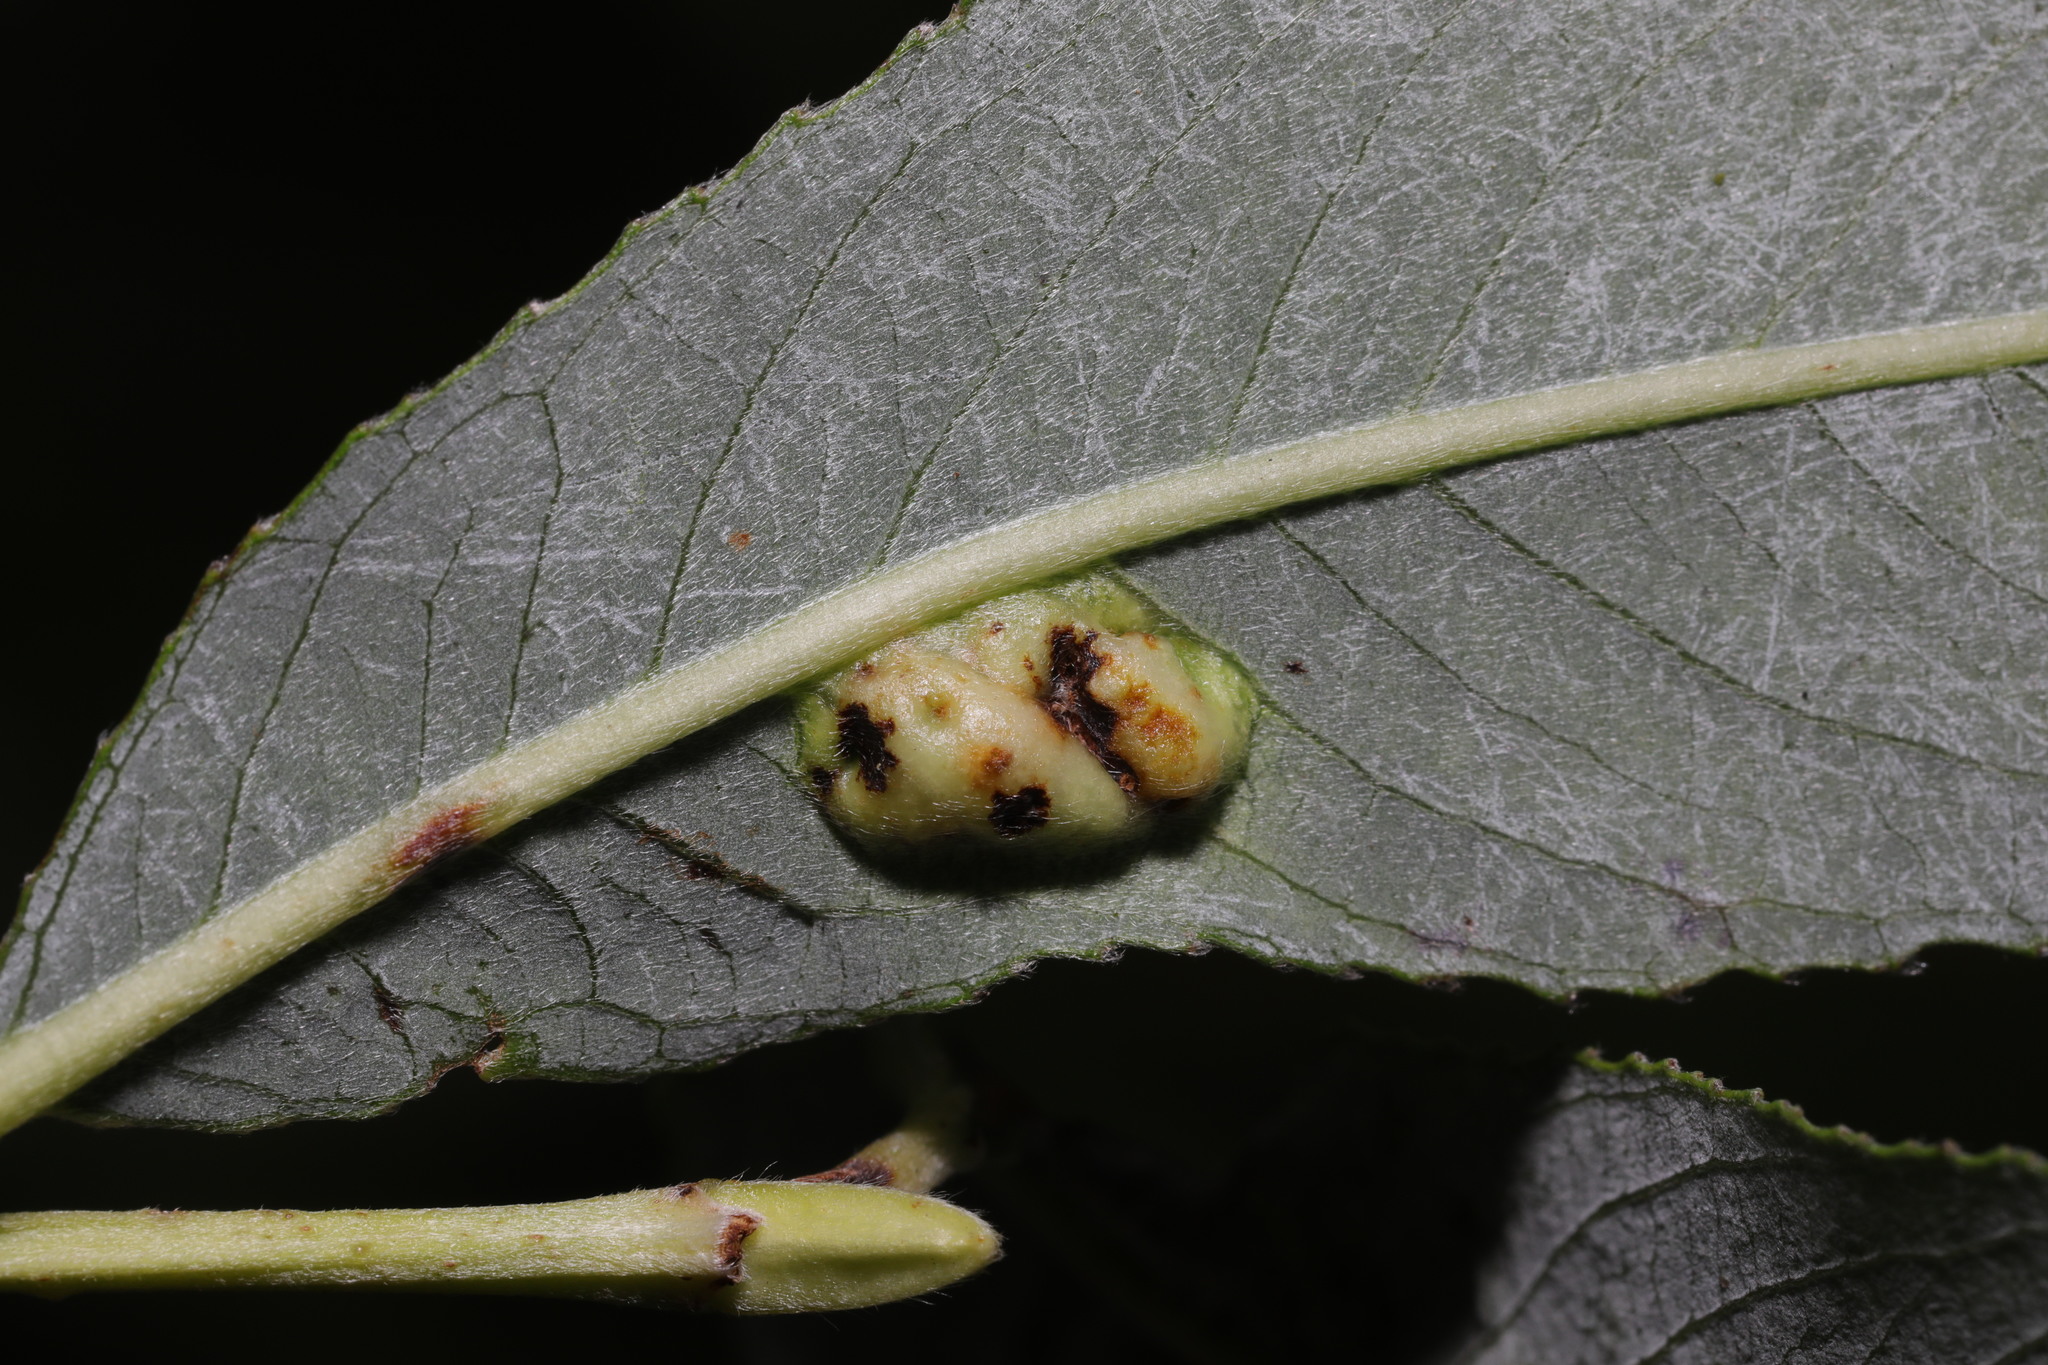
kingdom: Animalia
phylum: Arthropoda
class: Insecta
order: Diptera
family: Cecidomyiidae
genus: Iteomyia
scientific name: Iteomyia major
